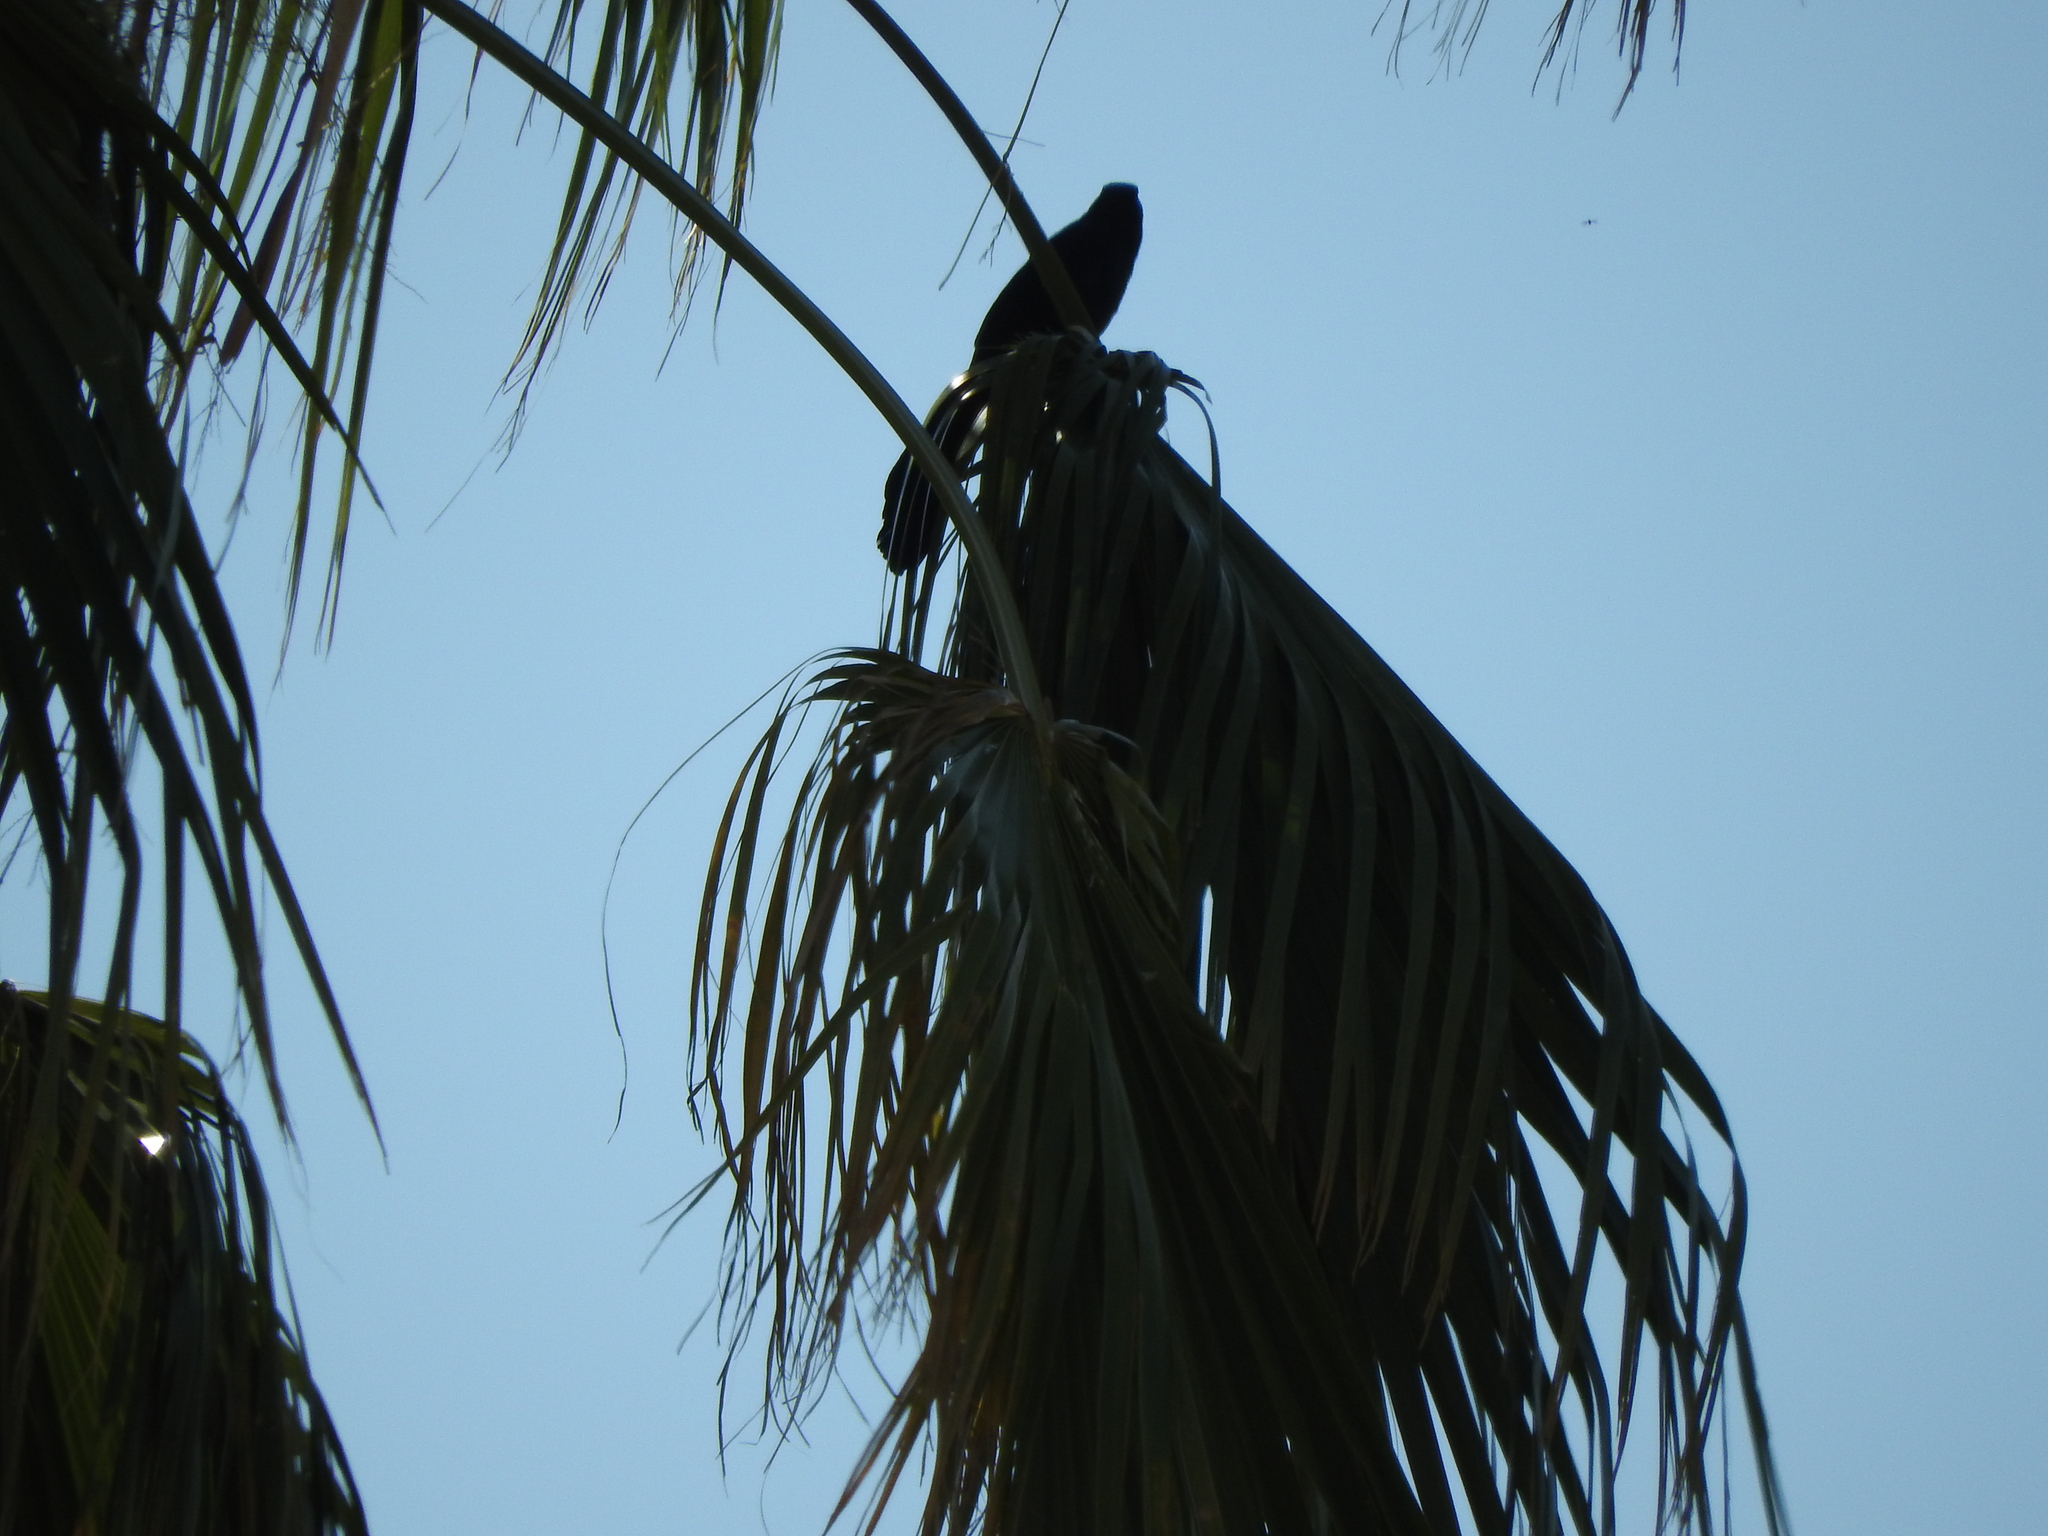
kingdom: Animalia
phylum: Chordata
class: Aves
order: Passeriformes
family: Icteridae
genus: Quiscalus
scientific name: Quiscalus mexicanus
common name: Great-tailed grackle
